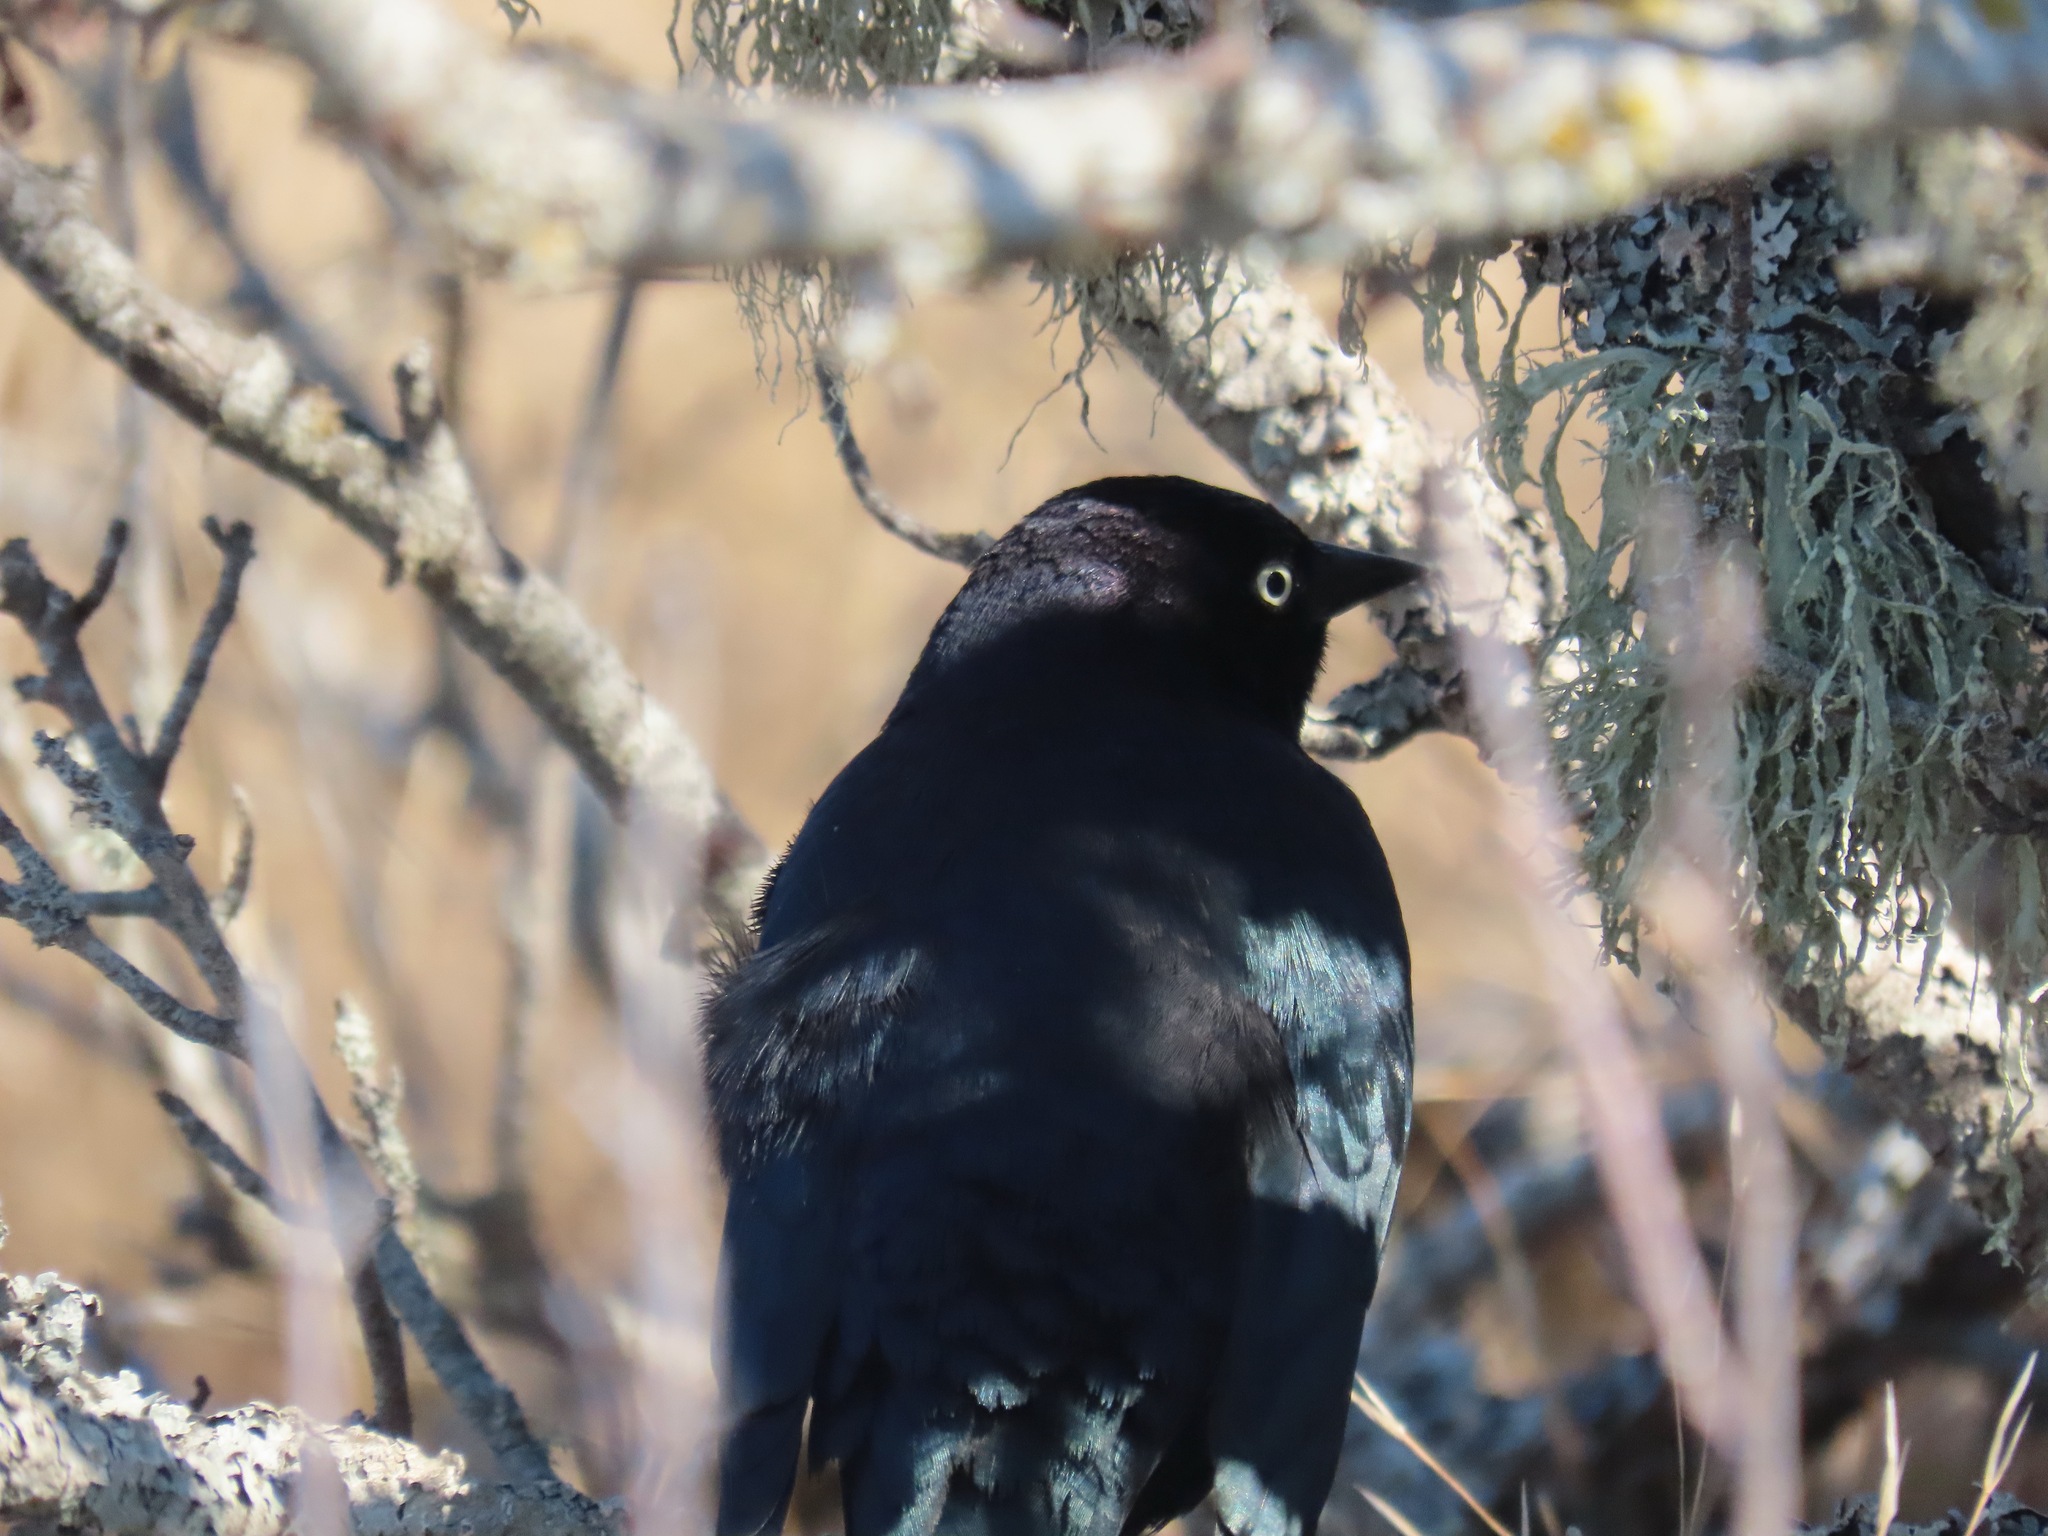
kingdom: Animalia
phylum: Chordata
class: Aves
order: Passeriformes
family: Icteridae
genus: Euphagus
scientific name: Euphagus cyanocephalus
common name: Brewer's blackbird
